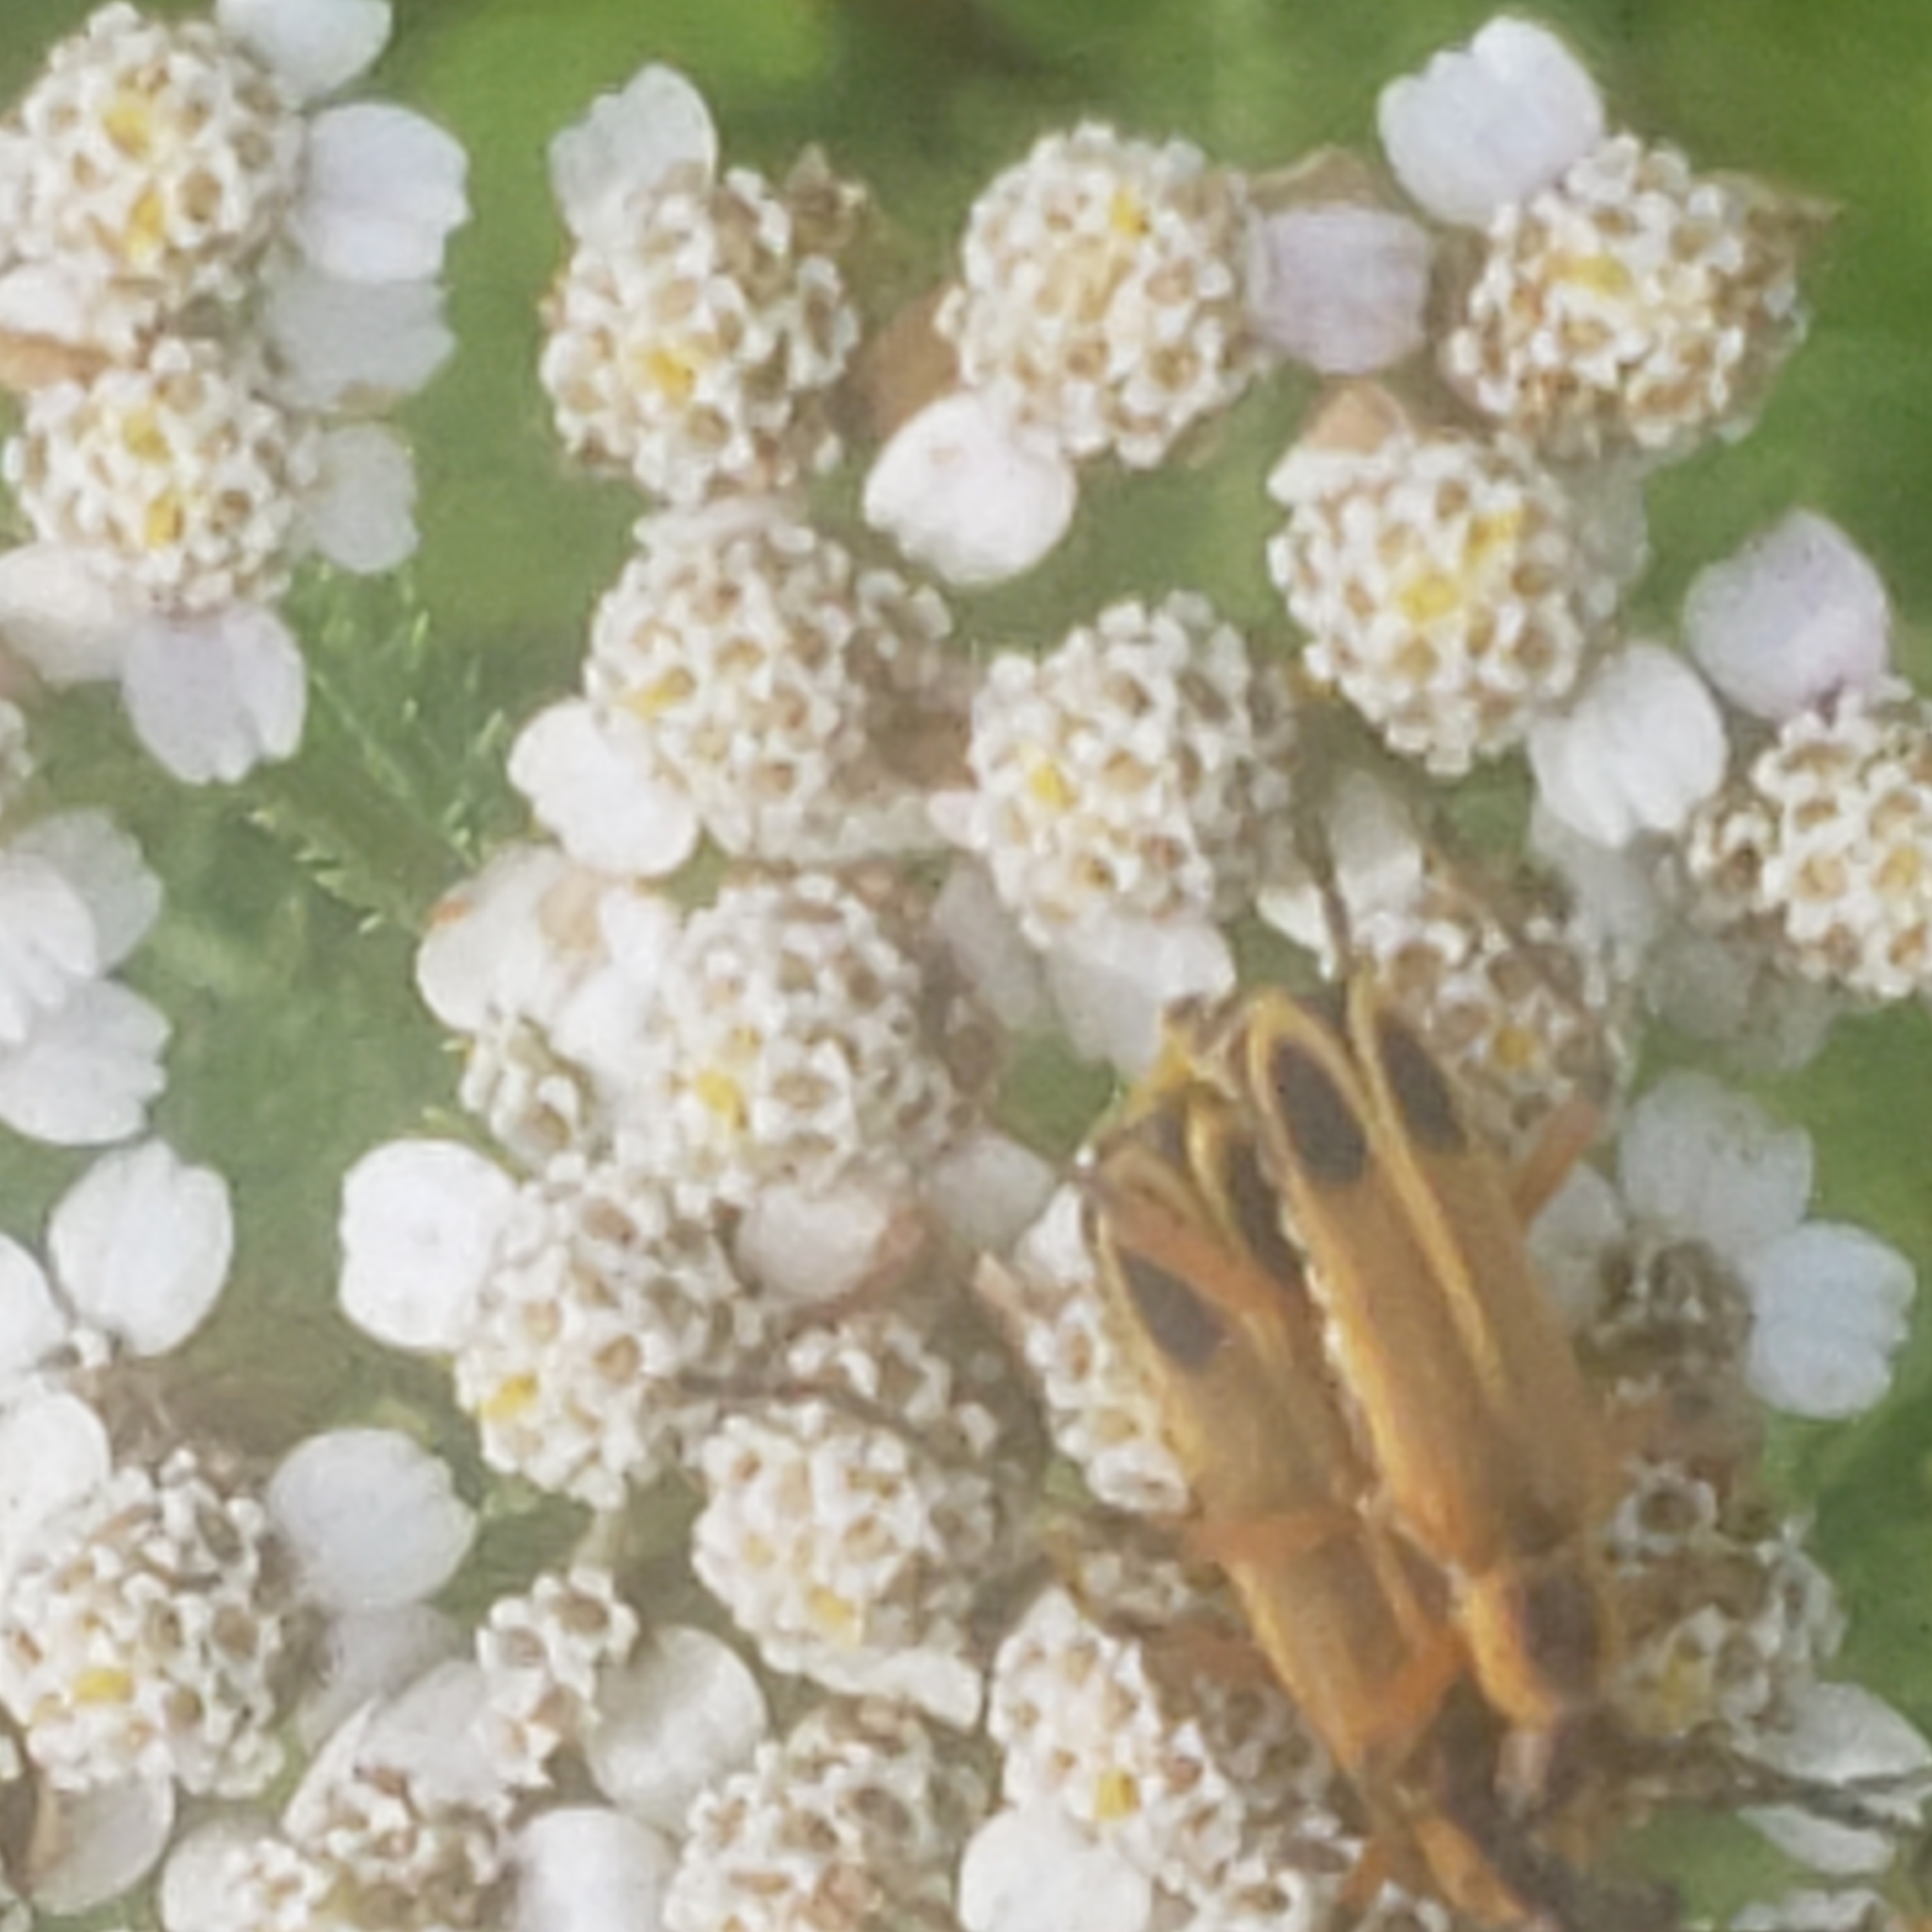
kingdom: Animalia
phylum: Arthropoda
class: Insecta
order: Coleoptera
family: Cantharidae
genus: Chauliognathus
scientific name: Chauliognathus marginatus
